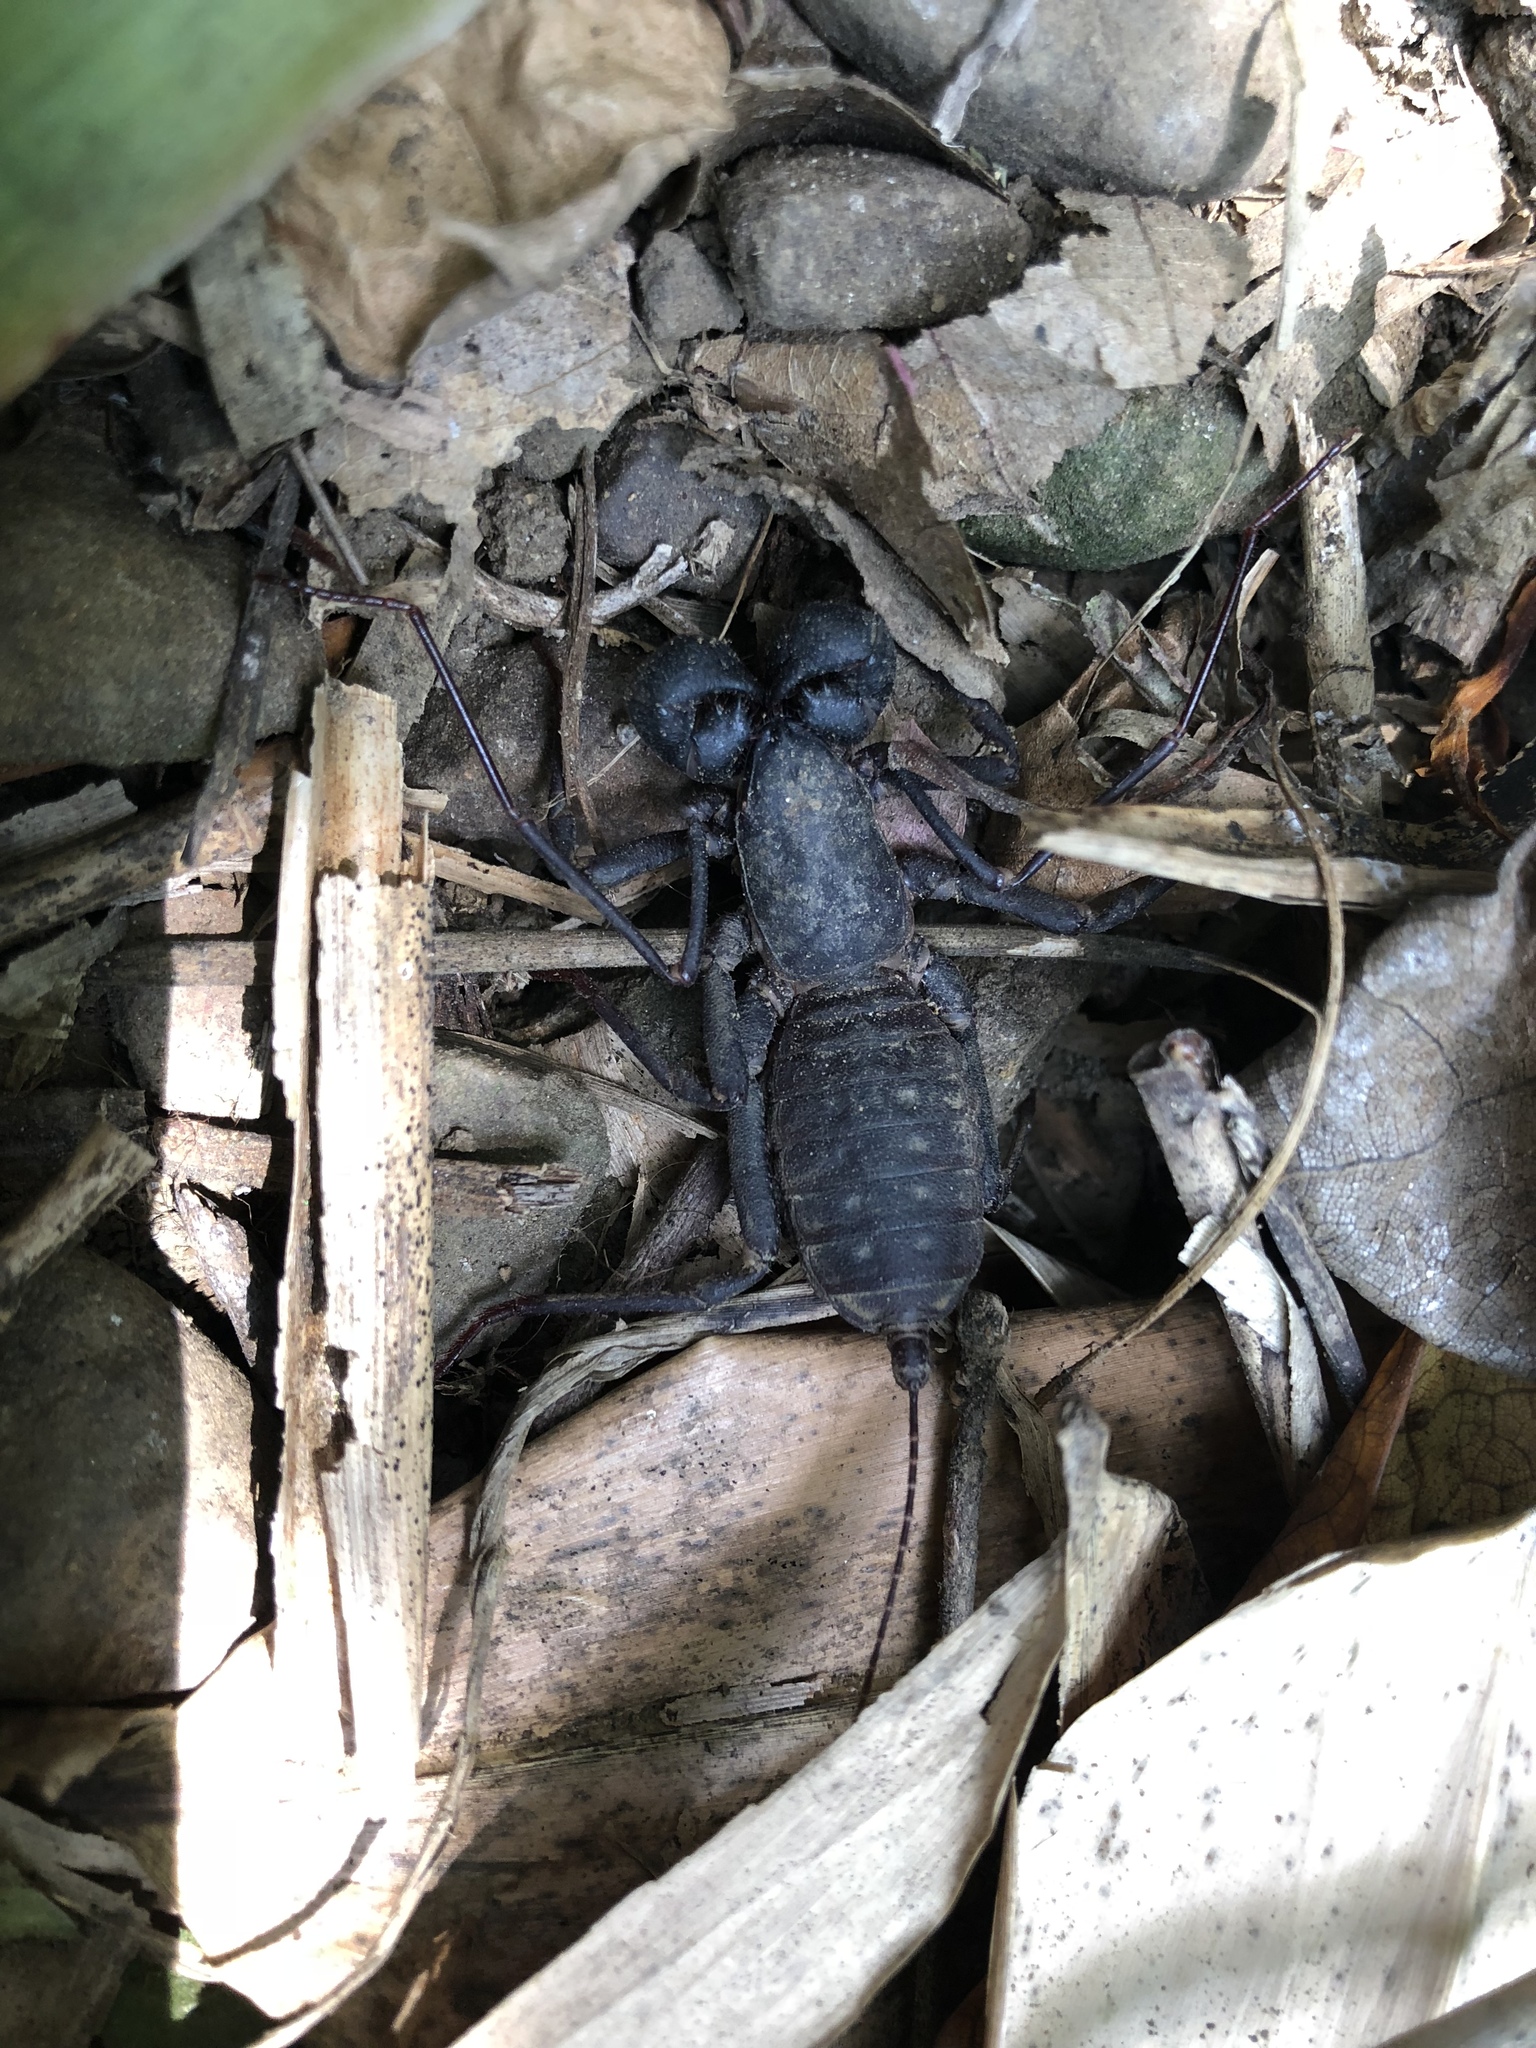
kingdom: Animalia
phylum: Arthropoda
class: Arachnida
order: Uropygi
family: Thelyphonidae
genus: Typopeltis
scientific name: Typopeltis crucifer
